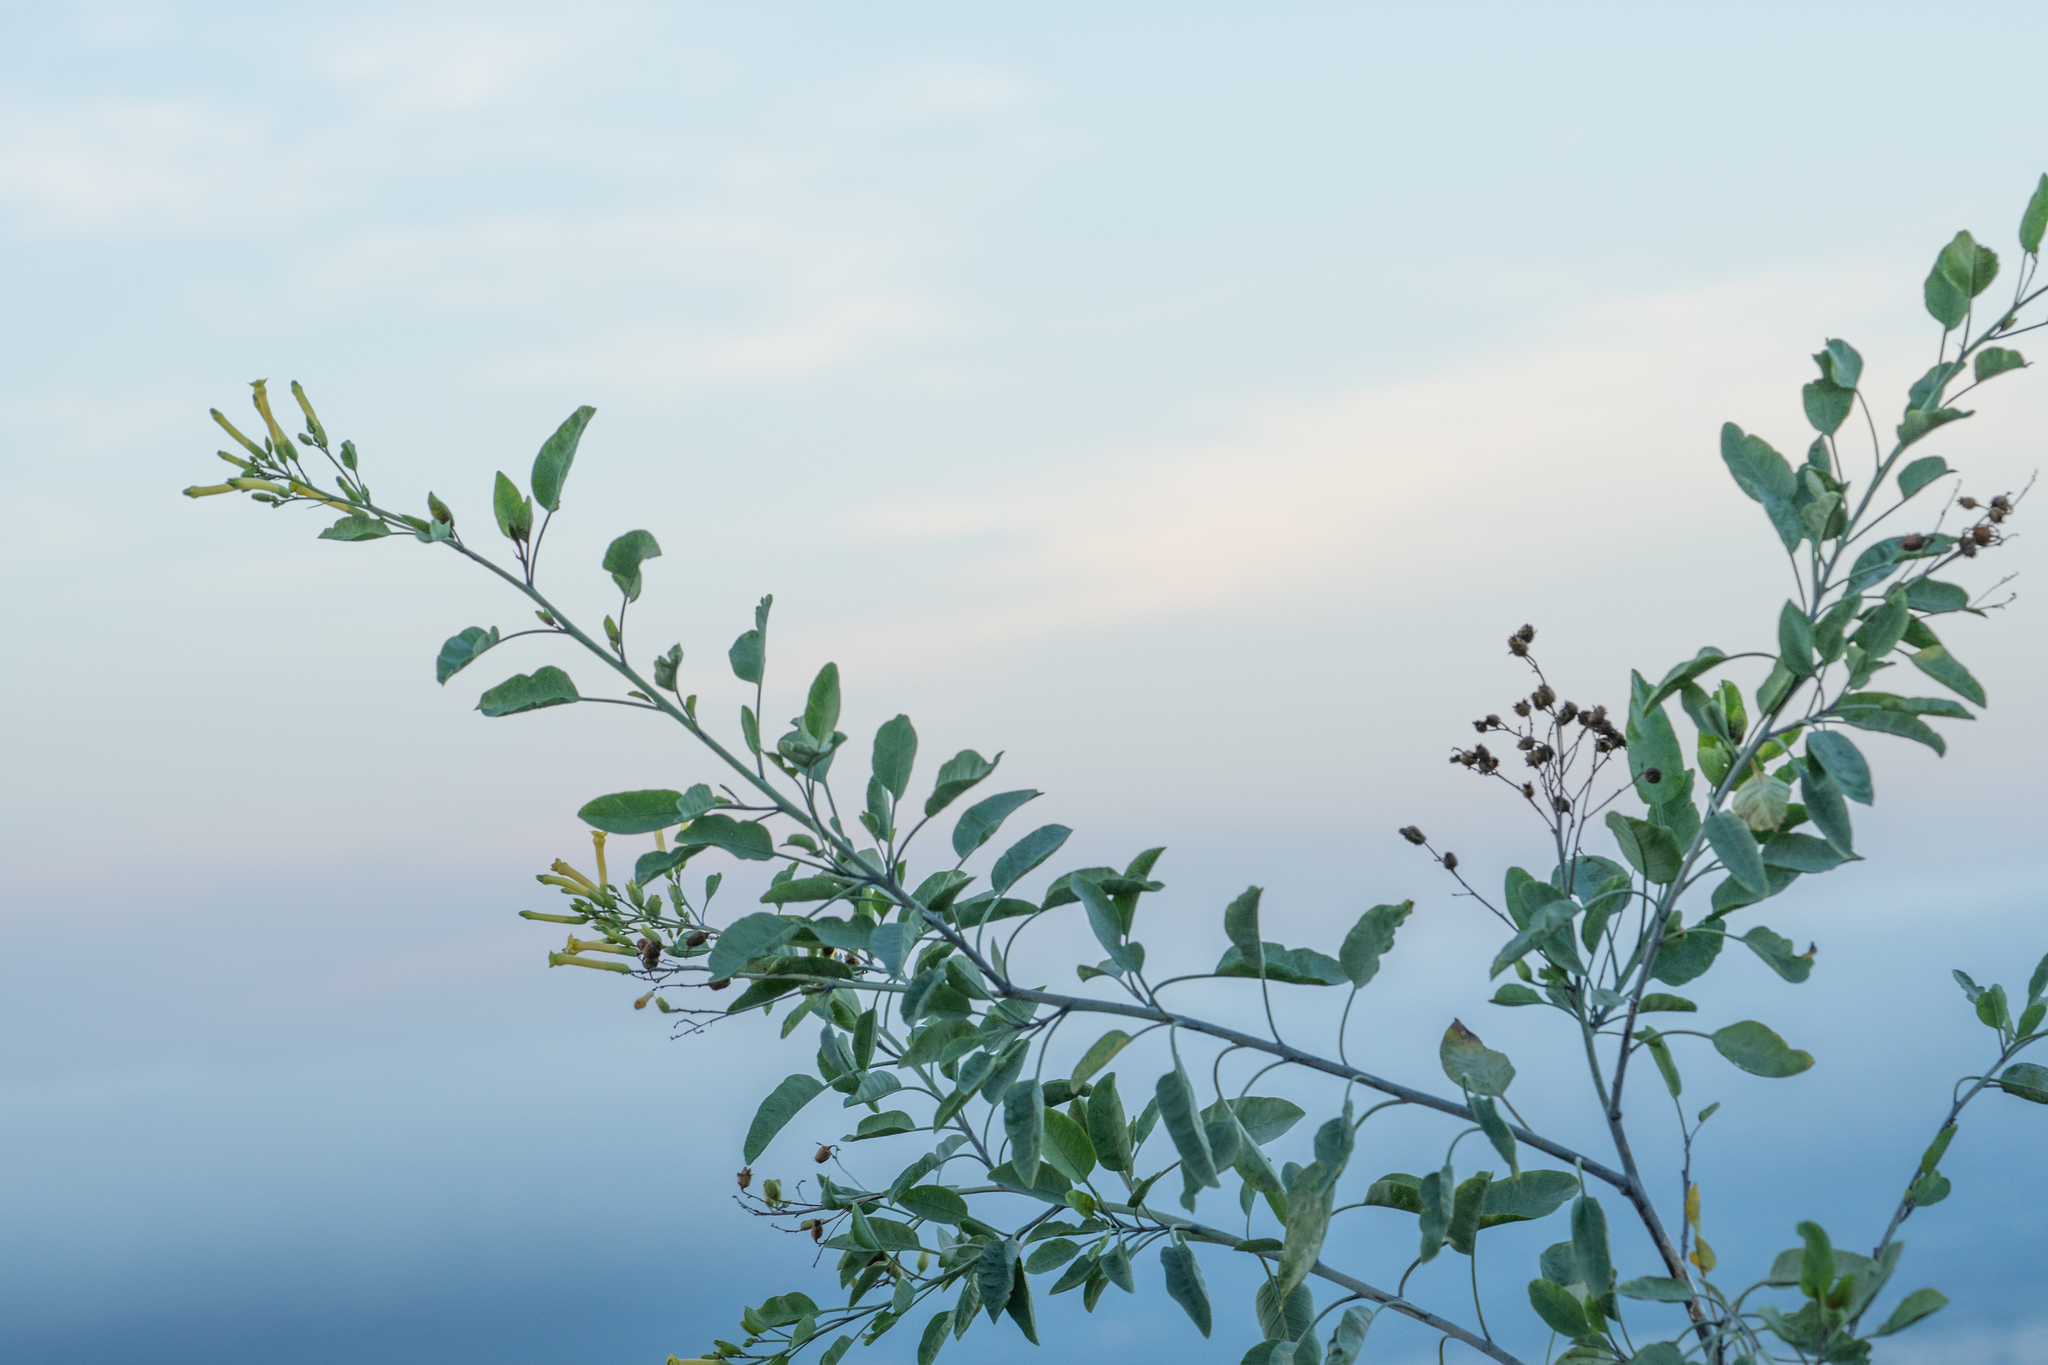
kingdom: Plantae
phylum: Tracheophyta
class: Magnoliopsida
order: Solanales
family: Solanaceae
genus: Nicotiana
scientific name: Nicotiana glauca
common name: Tree tobacco
